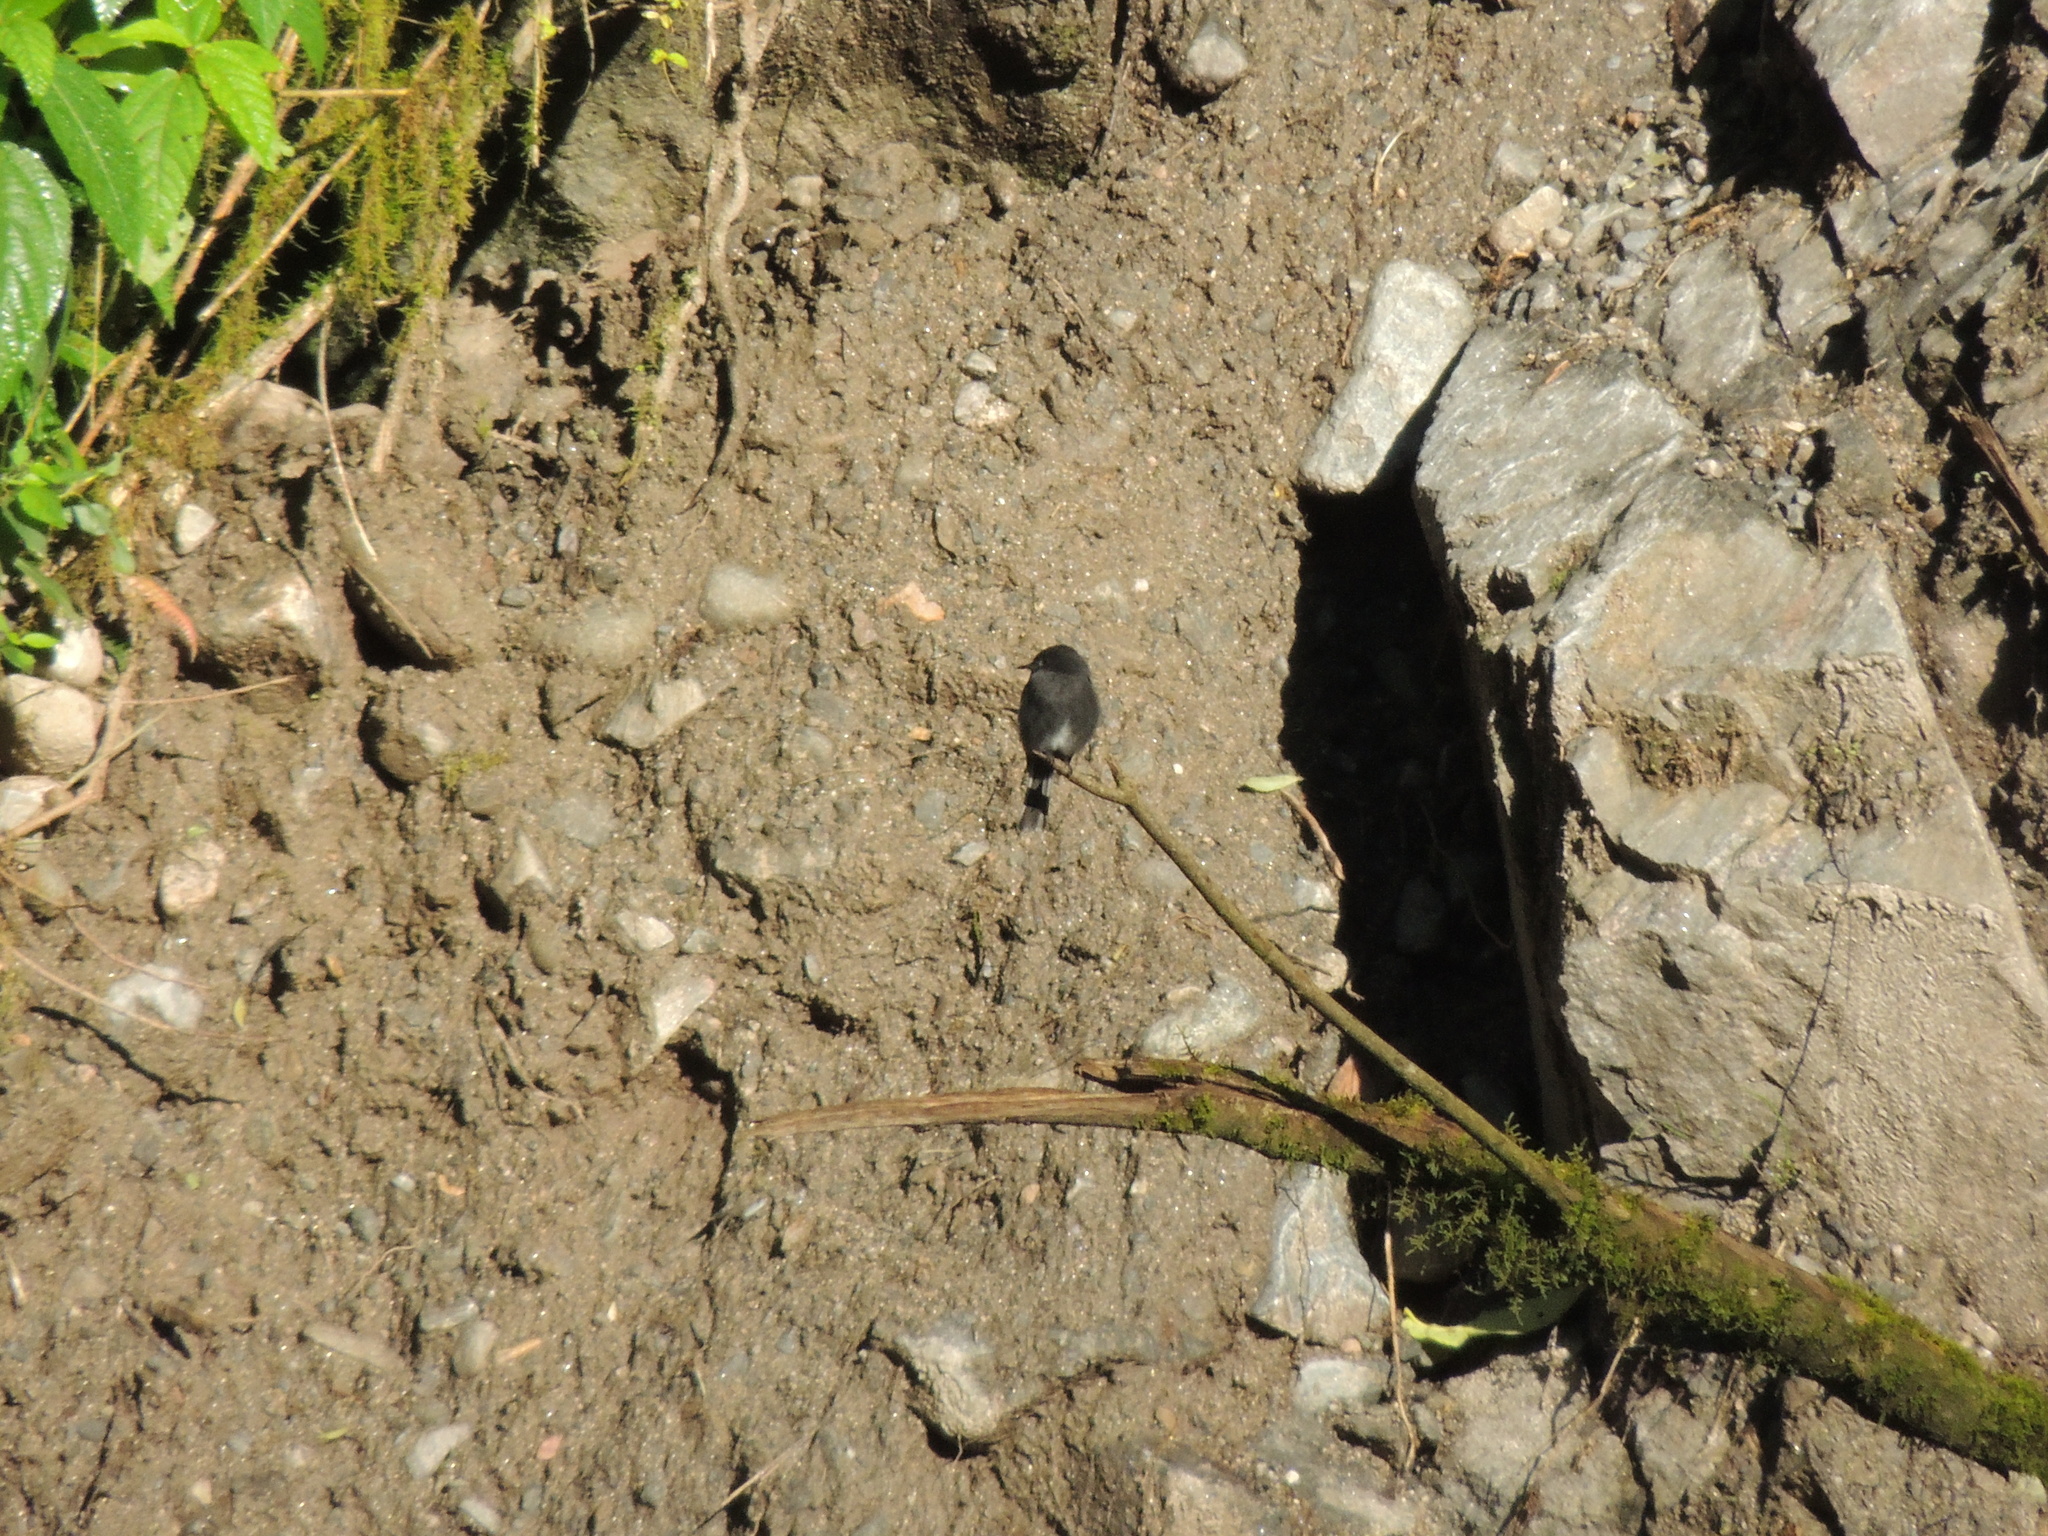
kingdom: Animalia
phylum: Chordata
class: Aves
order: Passeriformes
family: Tyrannidae
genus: Sayornis
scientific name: Sayornis nigricans
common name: Black phoebe
